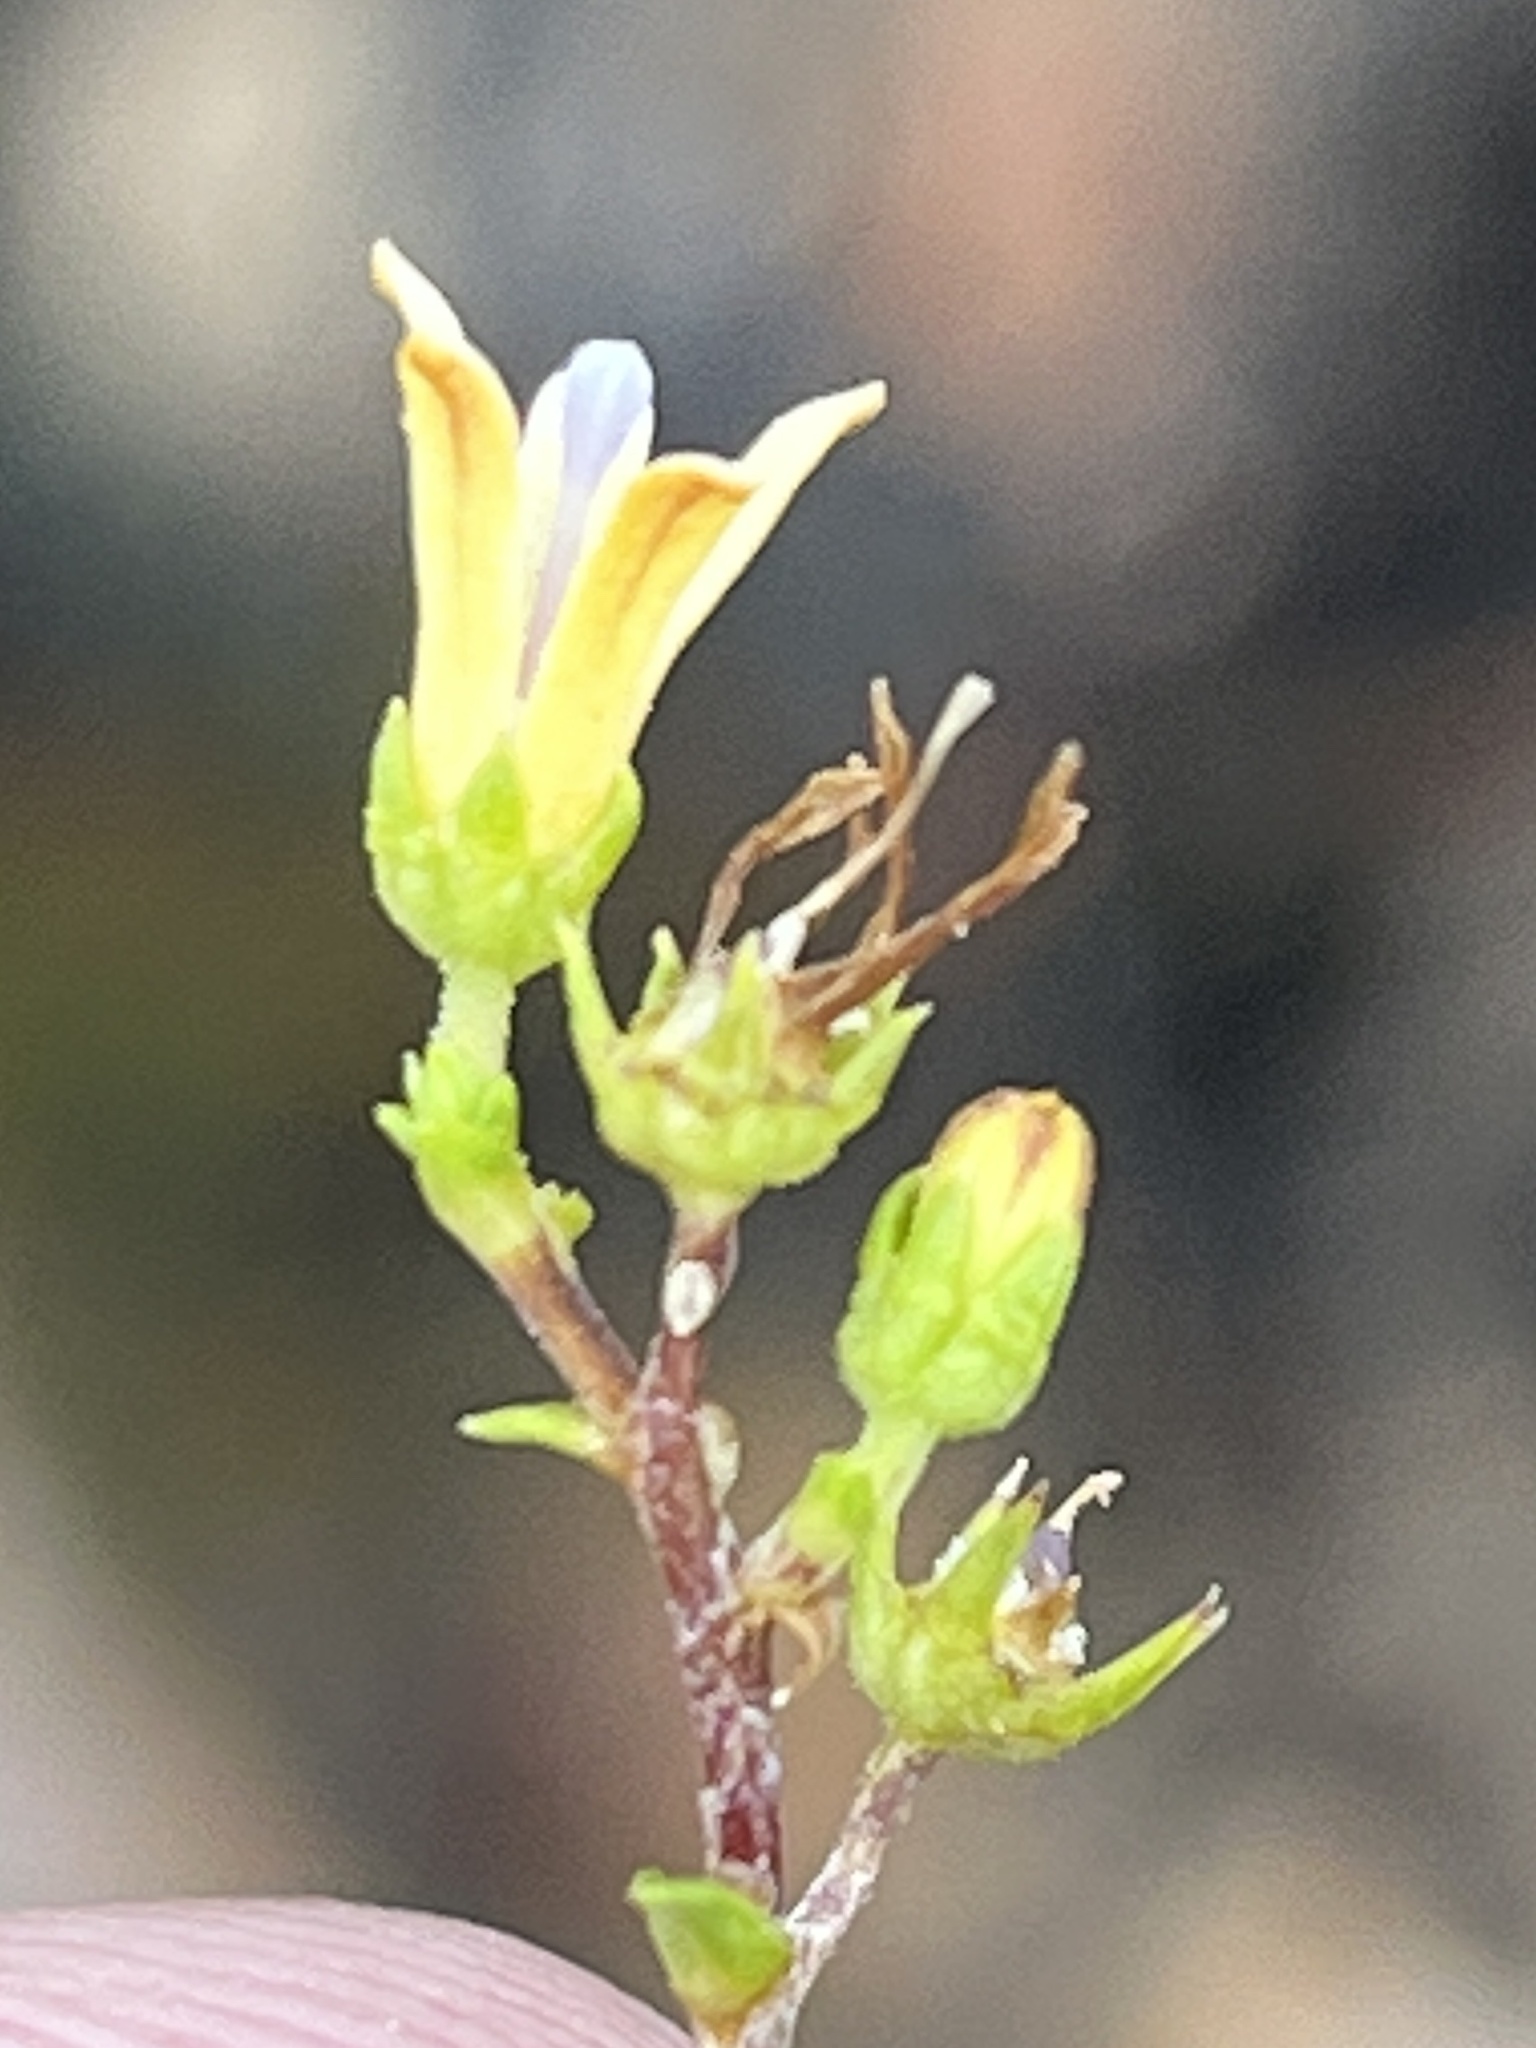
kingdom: Plantae
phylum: Tracheophyta
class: Magnoliopsida
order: Asterales
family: Campanulaceae
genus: Wahlenbergia
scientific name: Wahlenbergia neorigida
